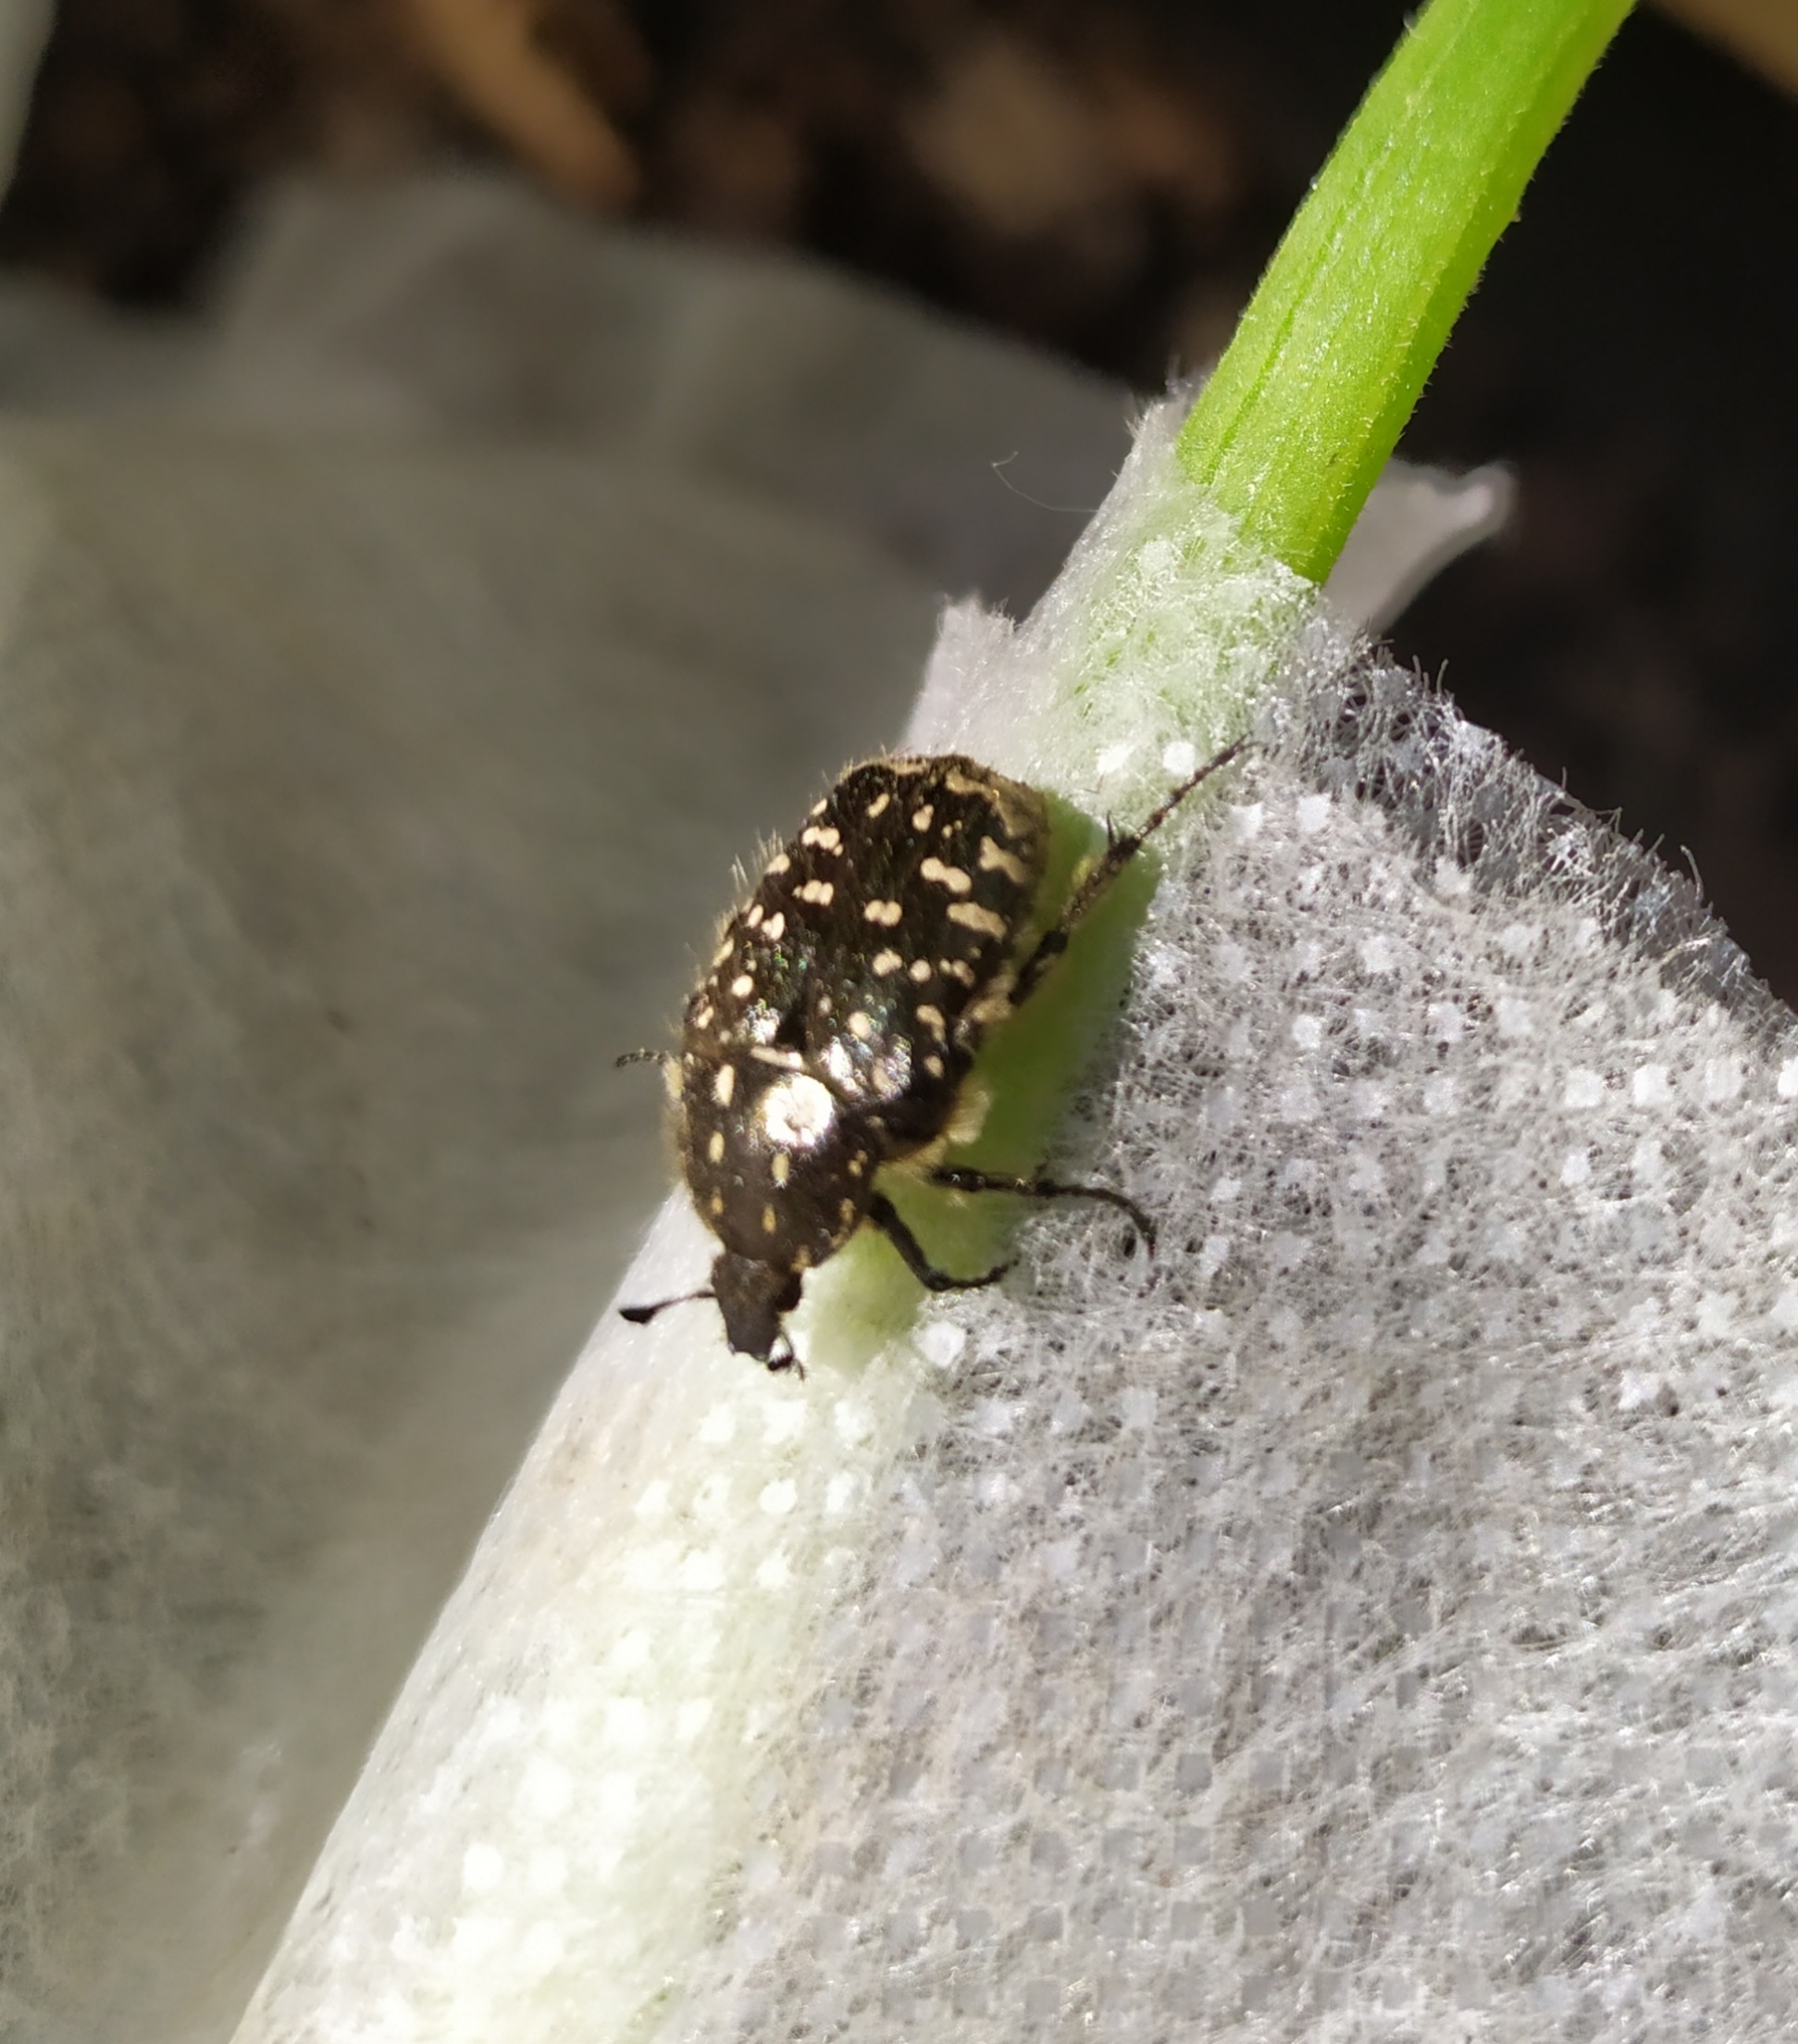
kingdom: Animalia
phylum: Arthropoda
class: Insecta
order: Coleoptera
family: Scarabaeidae
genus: Oxythyrea
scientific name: Oxythyrea funesta
